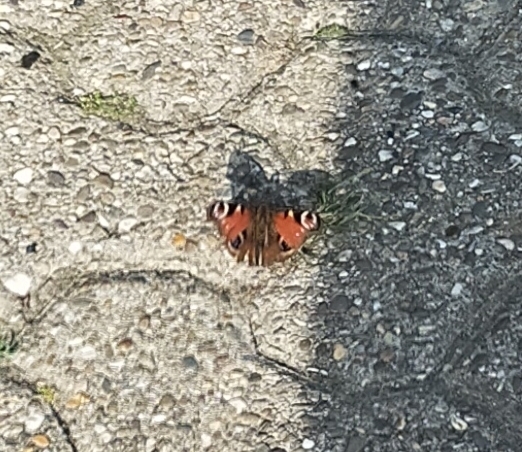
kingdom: Animalia
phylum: Arthropoda
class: Insecta
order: Lepidoptera
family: Nymphalidae
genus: Aglais
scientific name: Aglais io
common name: Peacock
